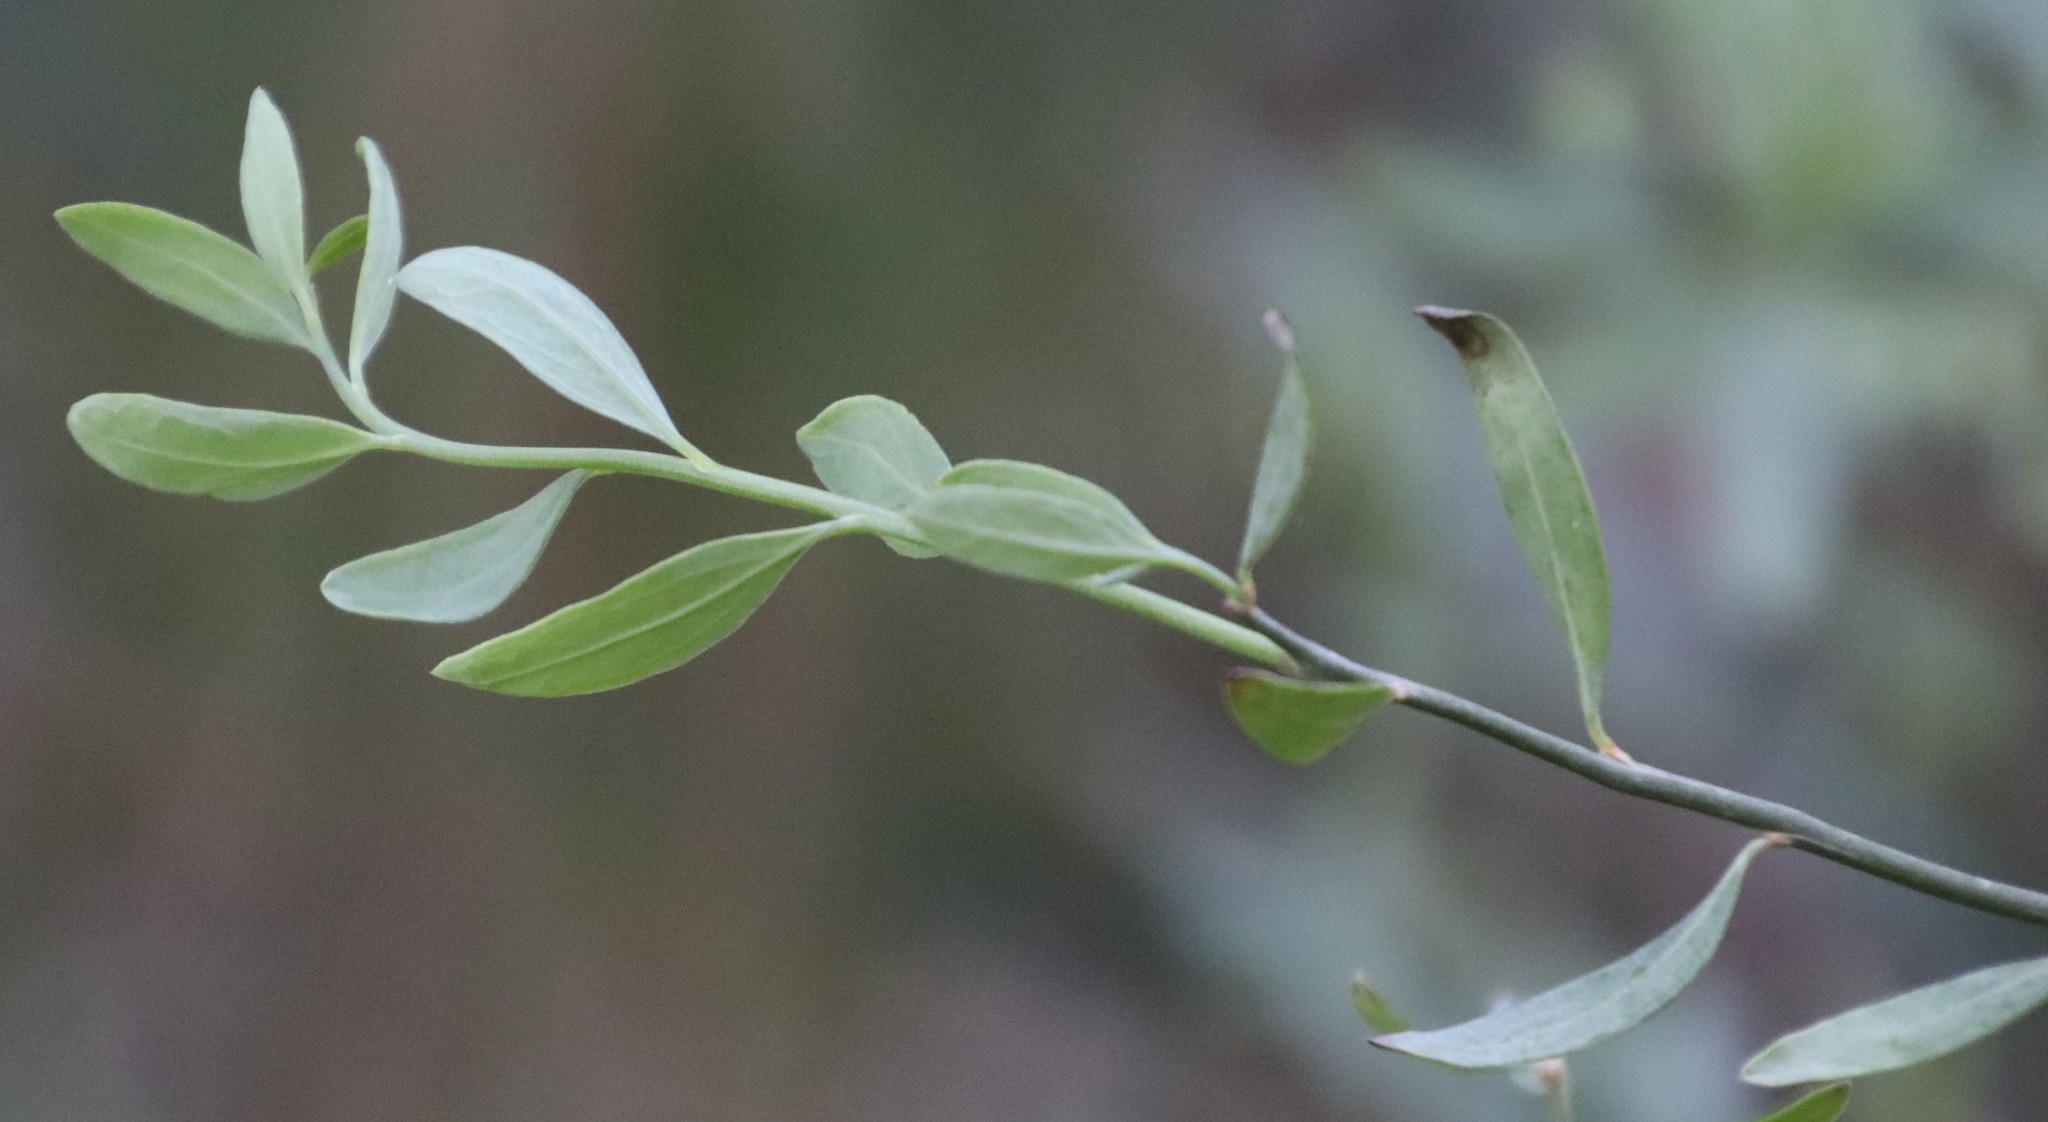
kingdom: Plantae
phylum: Tracheophyta
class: Magnoliopsida
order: Solanales
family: Montiniaceae
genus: Montinia
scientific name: Montinia caryophyllacea
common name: Wild clove-bush
